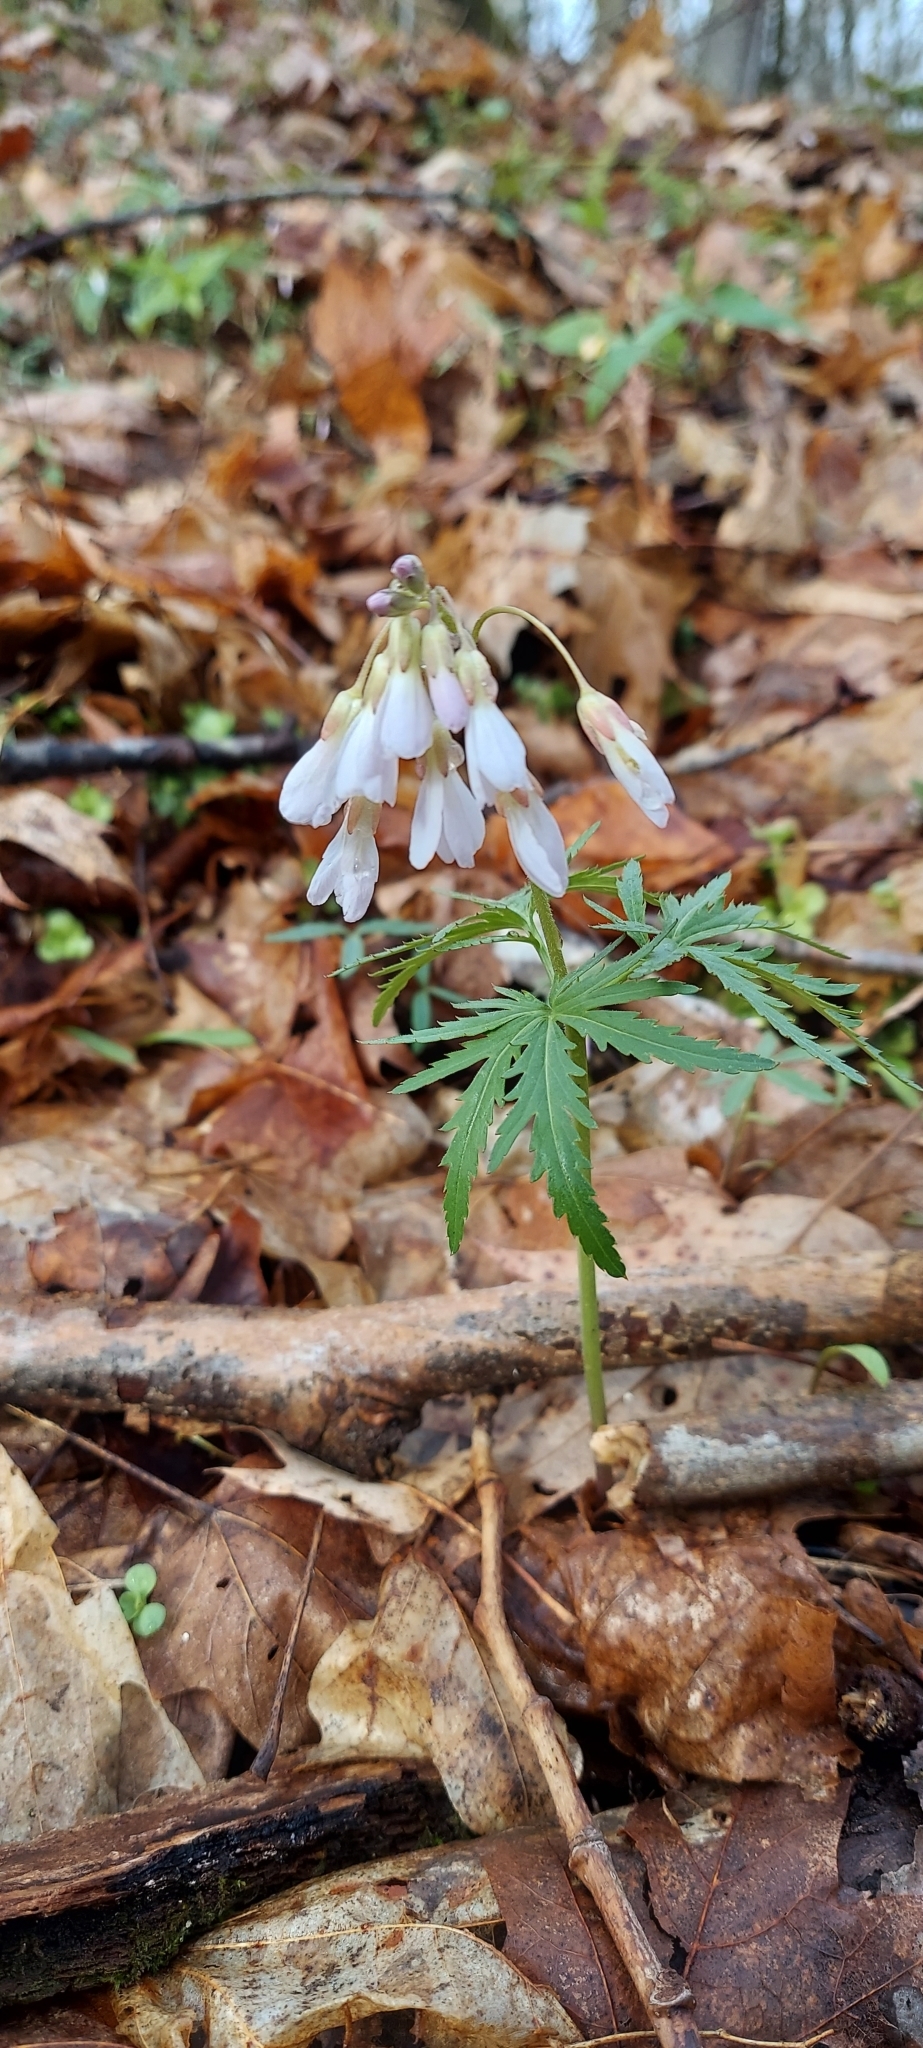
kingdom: Plantae
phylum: Tracheophyta
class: Magnoliopsida
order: Brassicales
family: Brassicaceae
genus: Cardamine
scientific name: Cardamine concatenata
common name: Cut-leaf toothcup
